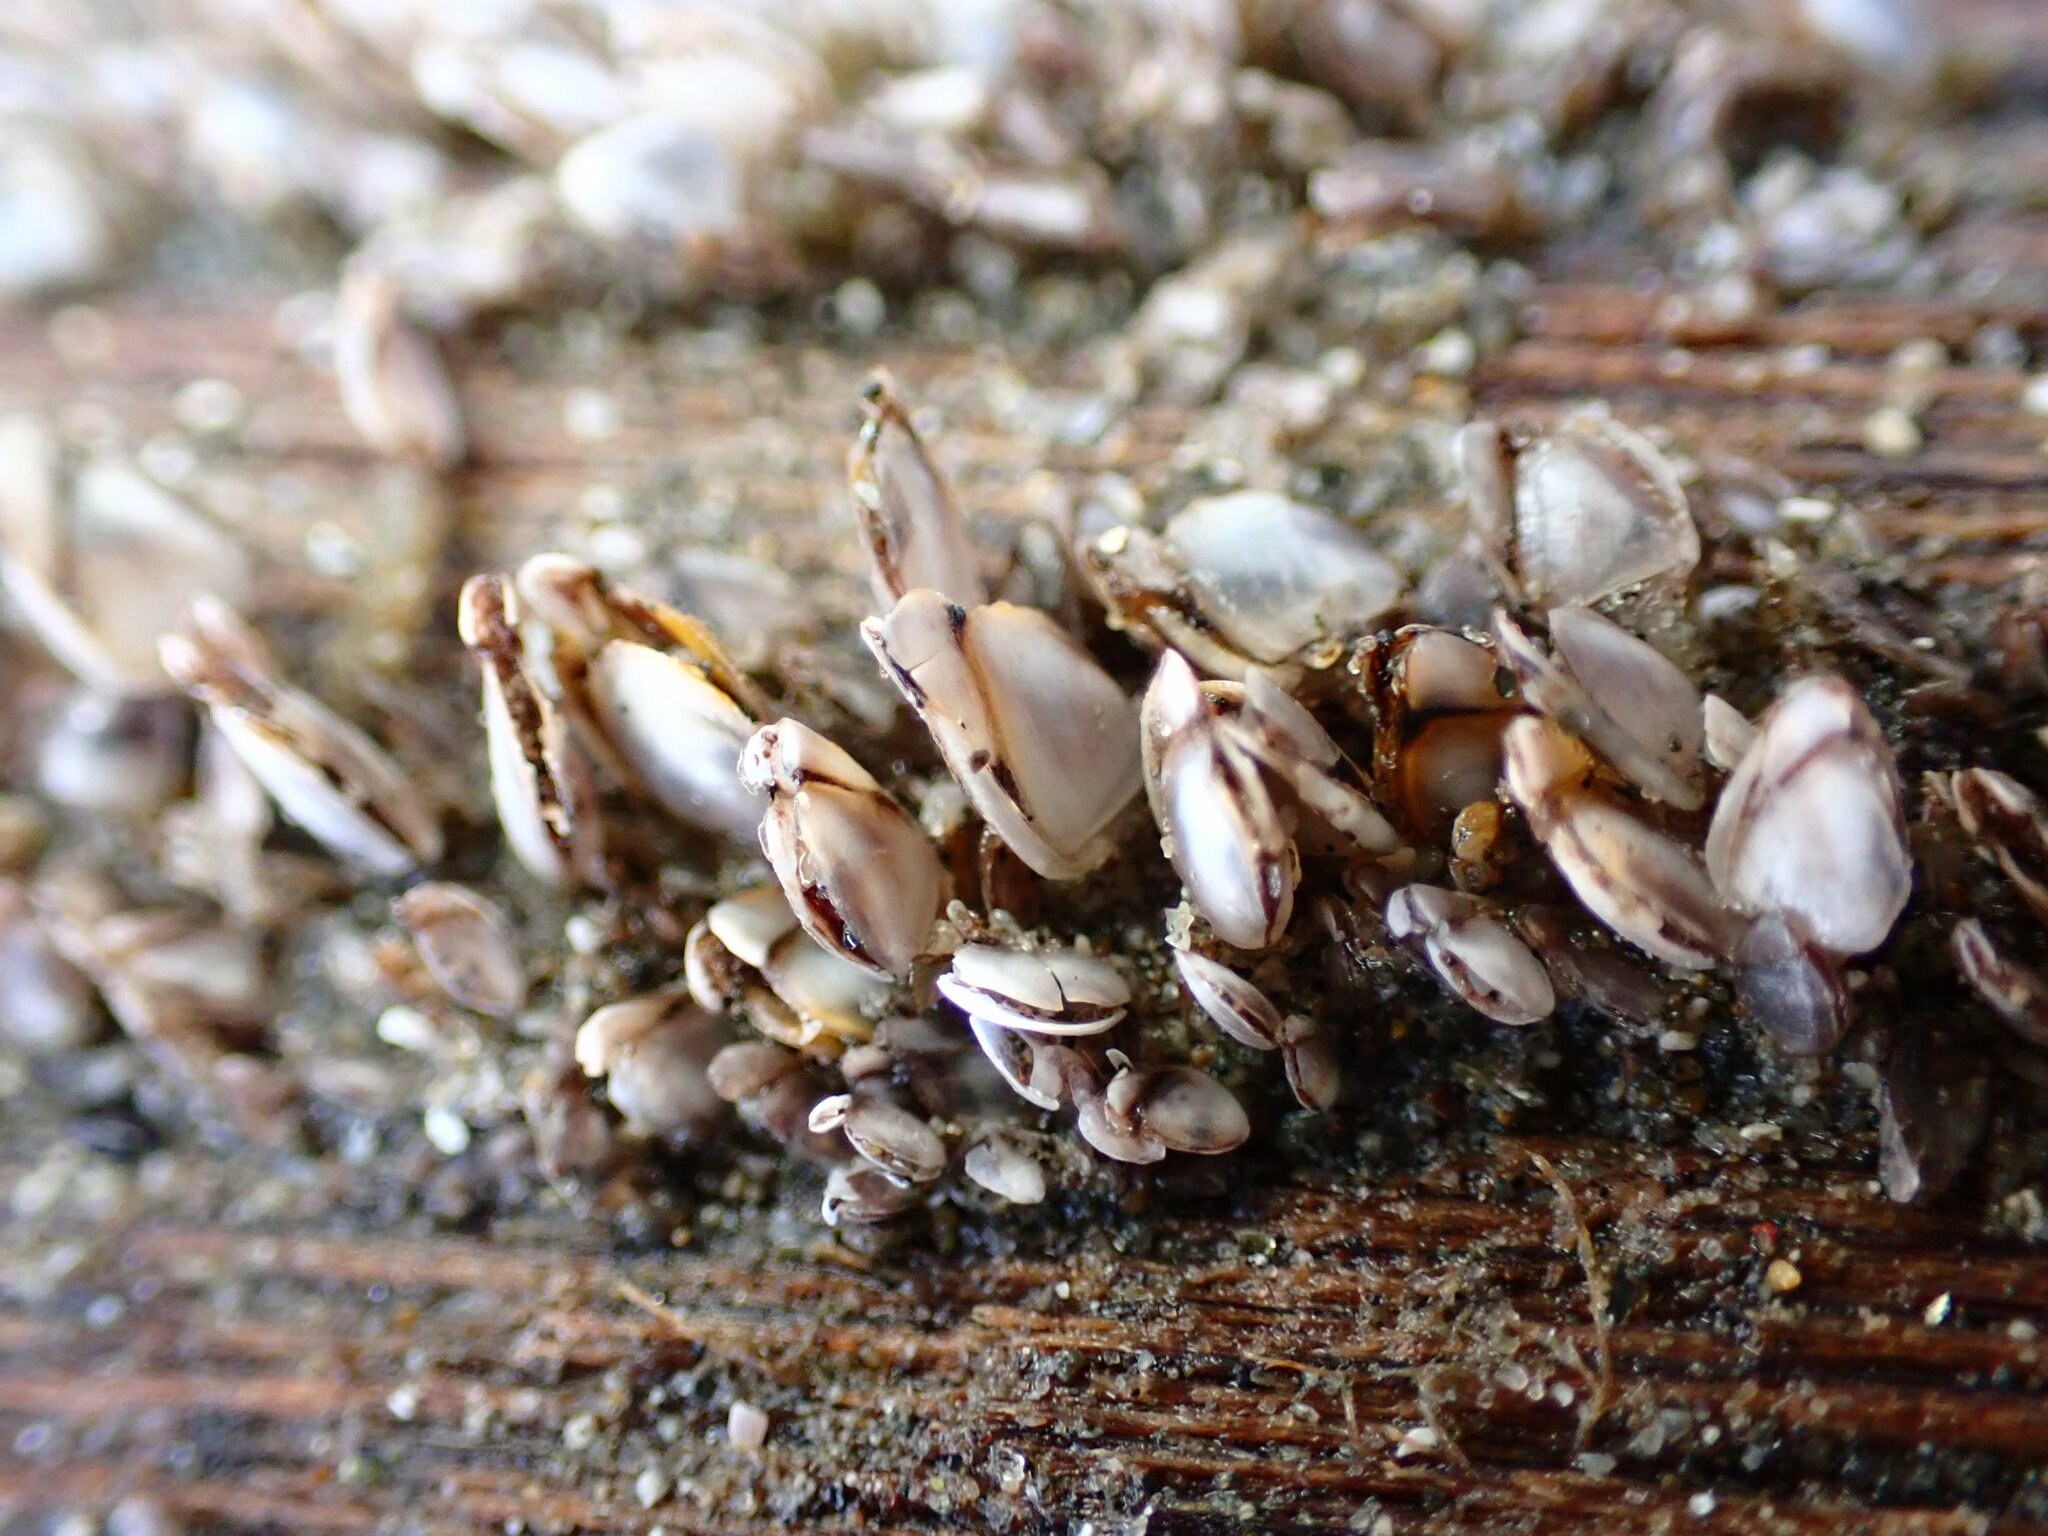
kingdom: Animalia
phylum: Arthropoda
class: Maxillopoda
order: Pedunculata
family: Lepadidae
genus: Lepas
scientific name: Lepas anatifera
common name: Common goose barnacle
